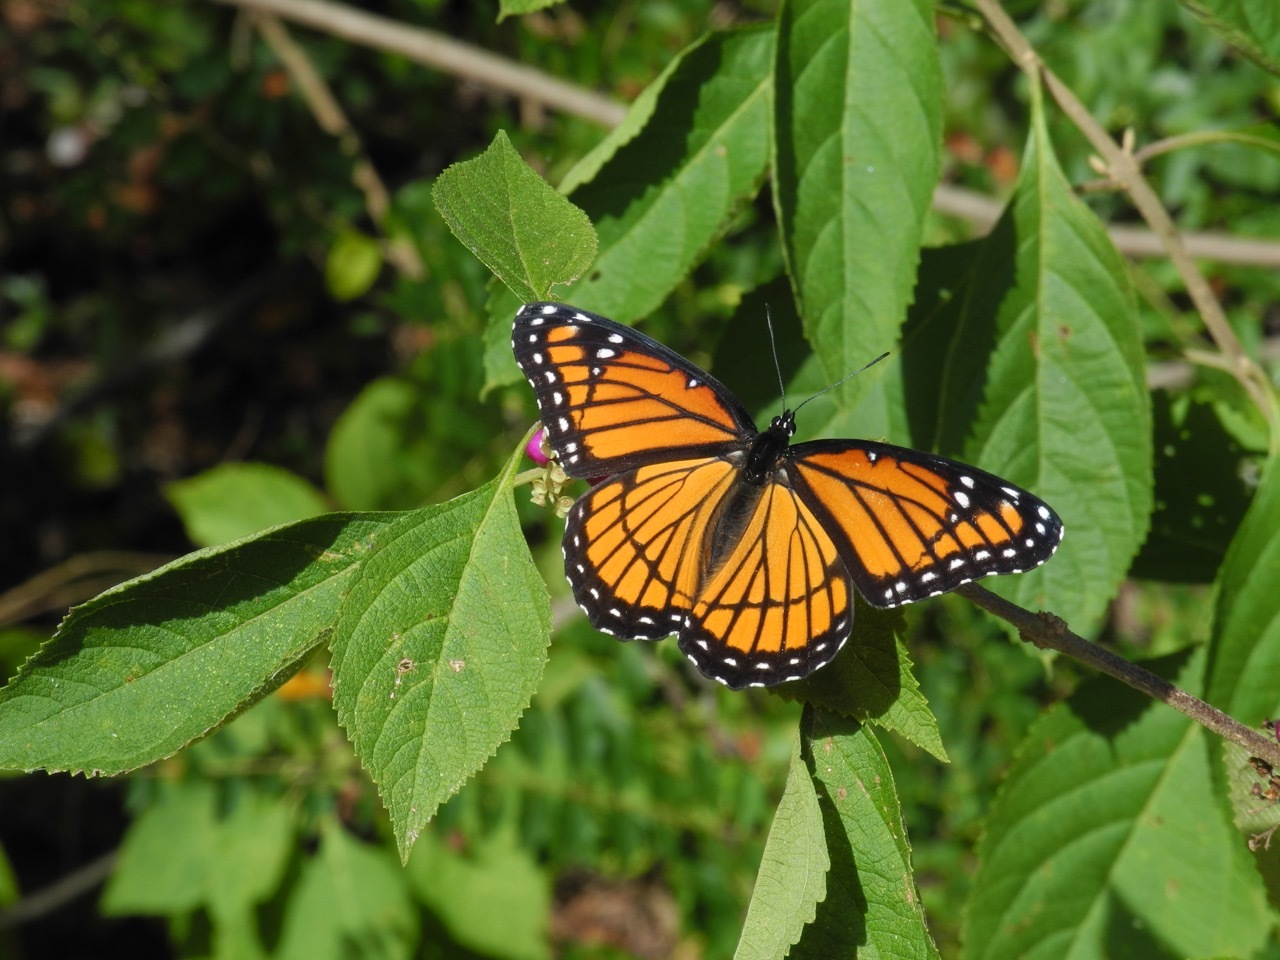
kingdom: Animalia
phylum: Arthropoda
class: Insecta
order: Lepidoptera
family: Nymphalidae
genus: Limenitis
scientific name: Limenitis archippus
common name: Viceroy
